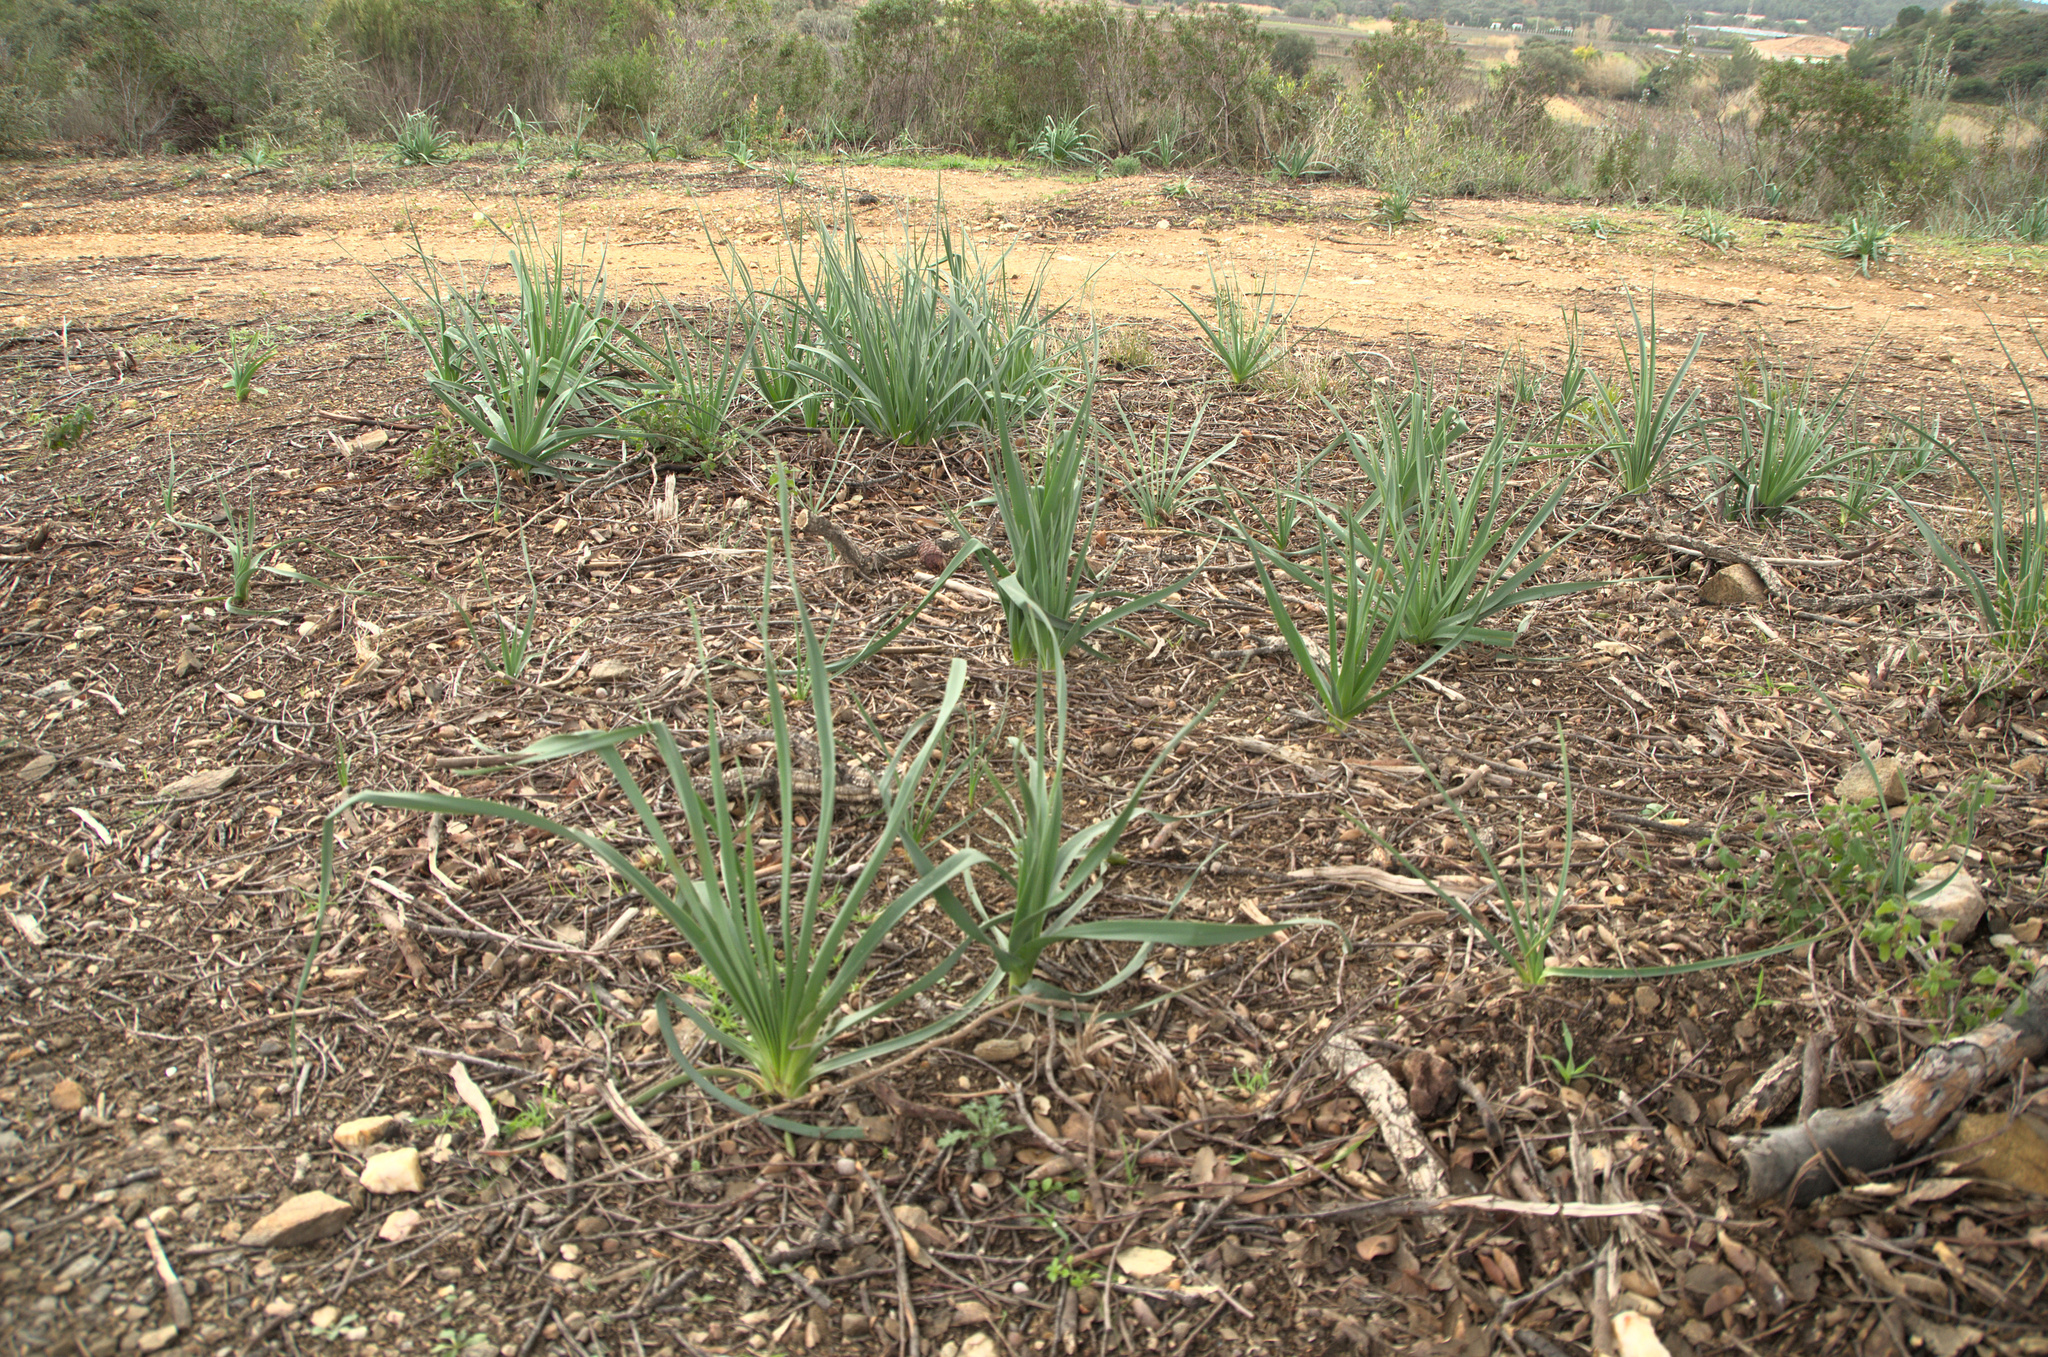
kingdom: Plantae
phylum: Tracheophyta
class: Liliopsida
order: Asparagales
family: Asphodelaceae
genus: Asphodelus
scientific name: Asphodelus ramosus
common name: Silverrod
